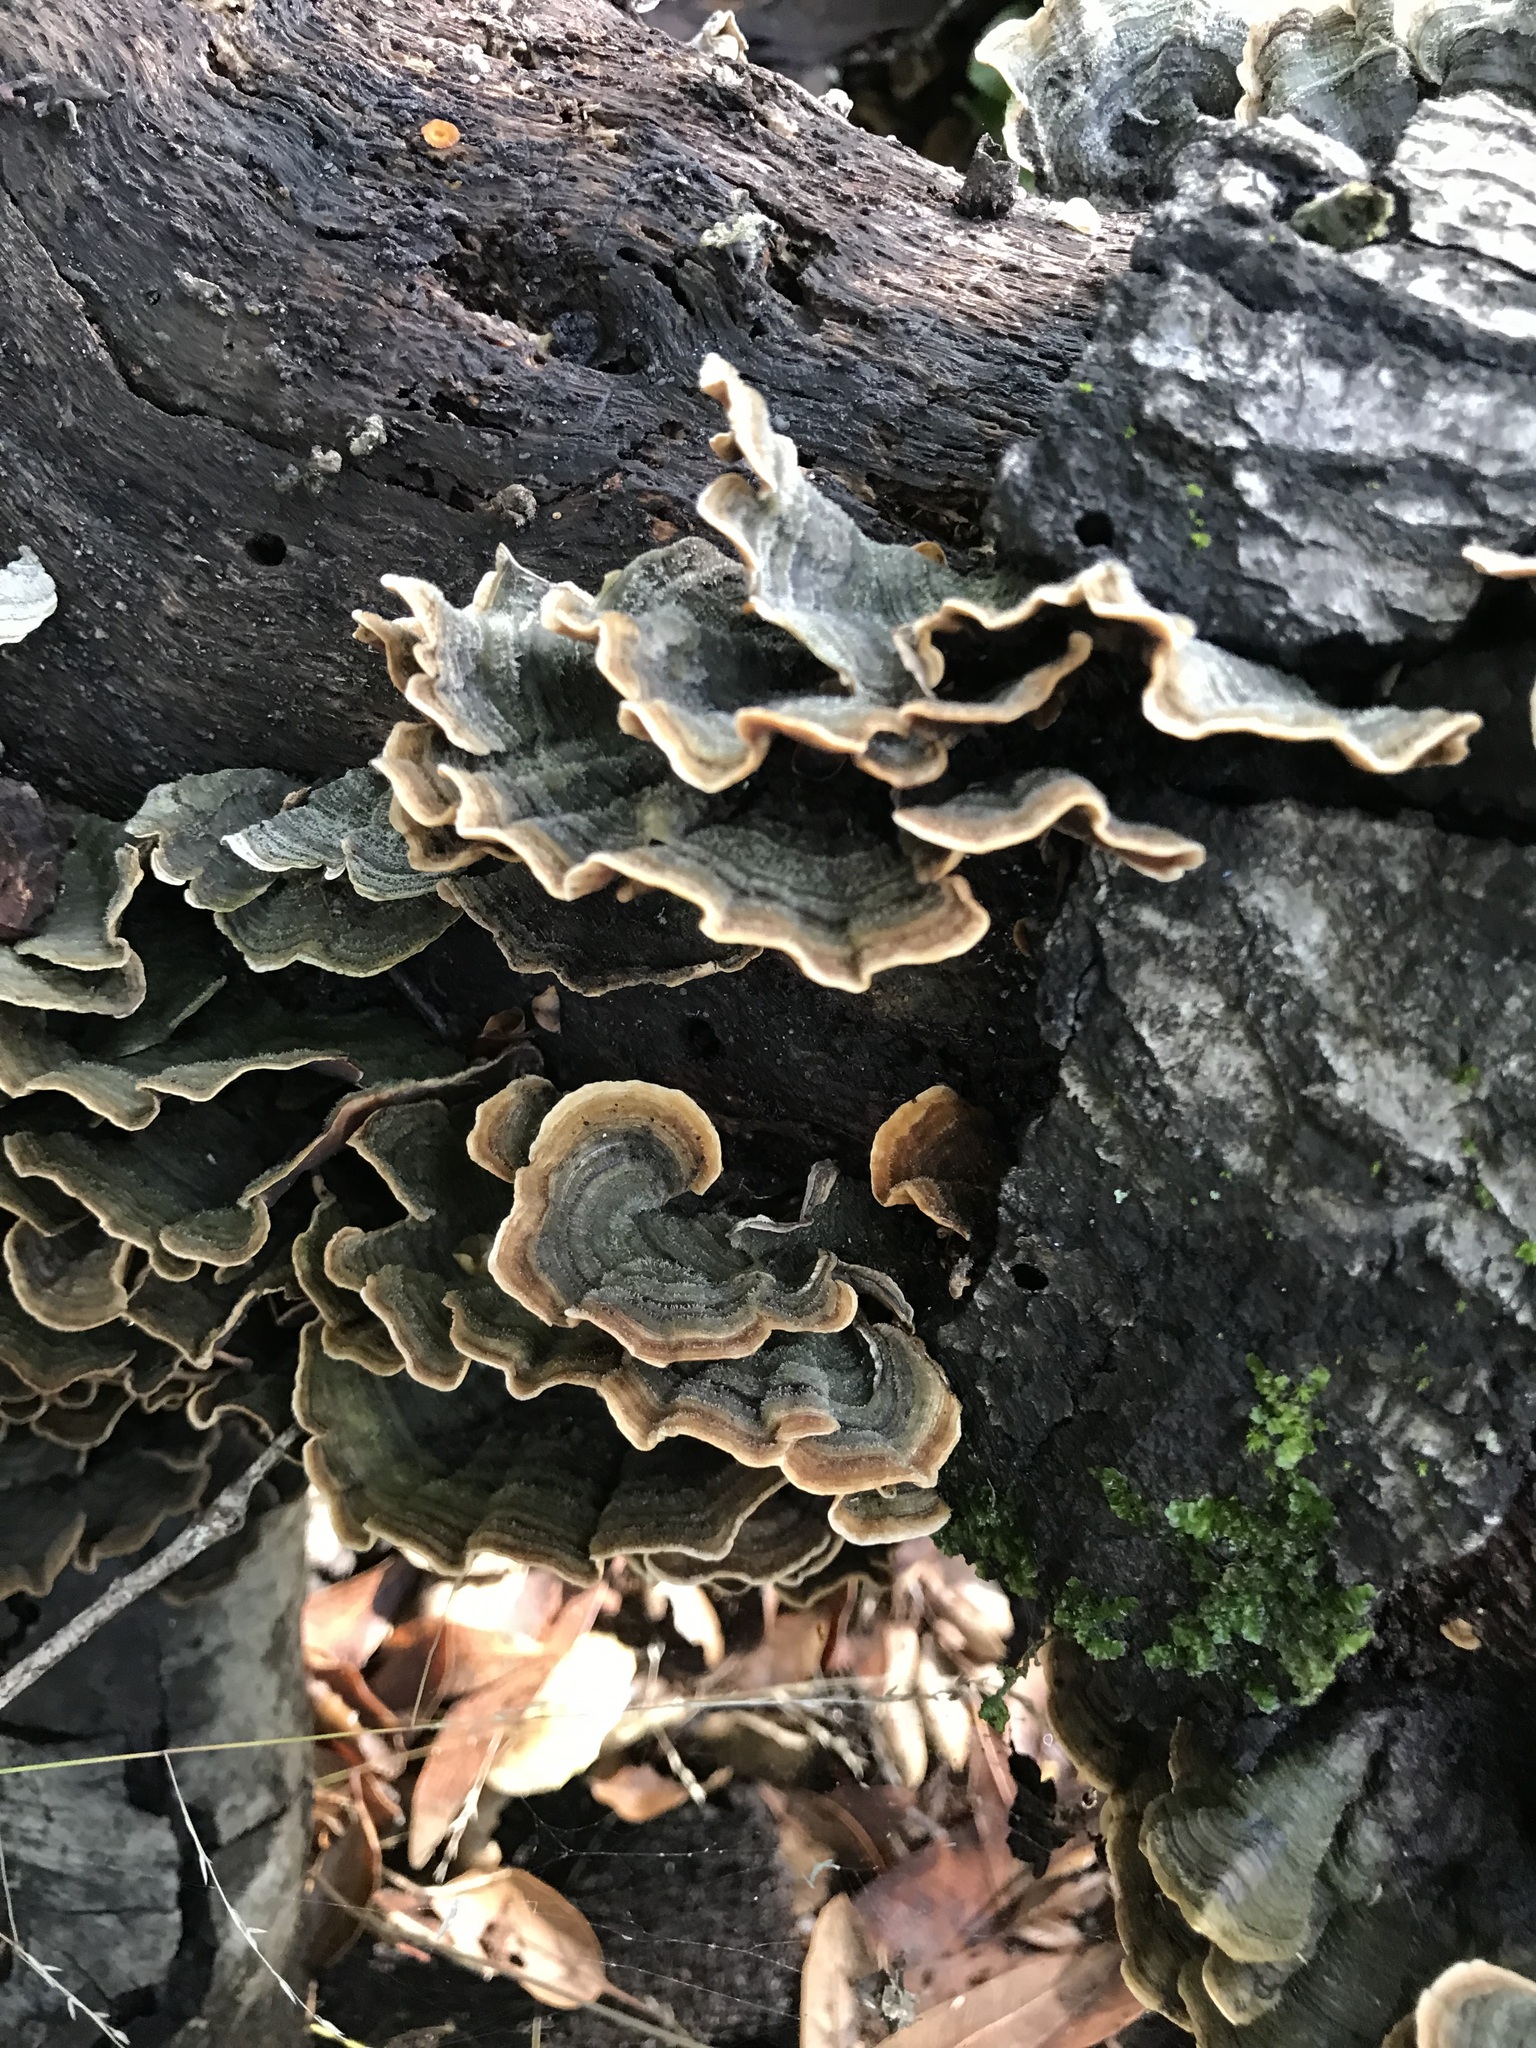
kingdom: Fungi
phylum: Basidiomycota
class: Agaricomycetes
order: Polyporales
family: Polyporaceae
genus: Trametes
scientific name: Trametes versicolor
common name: Turkeytail
